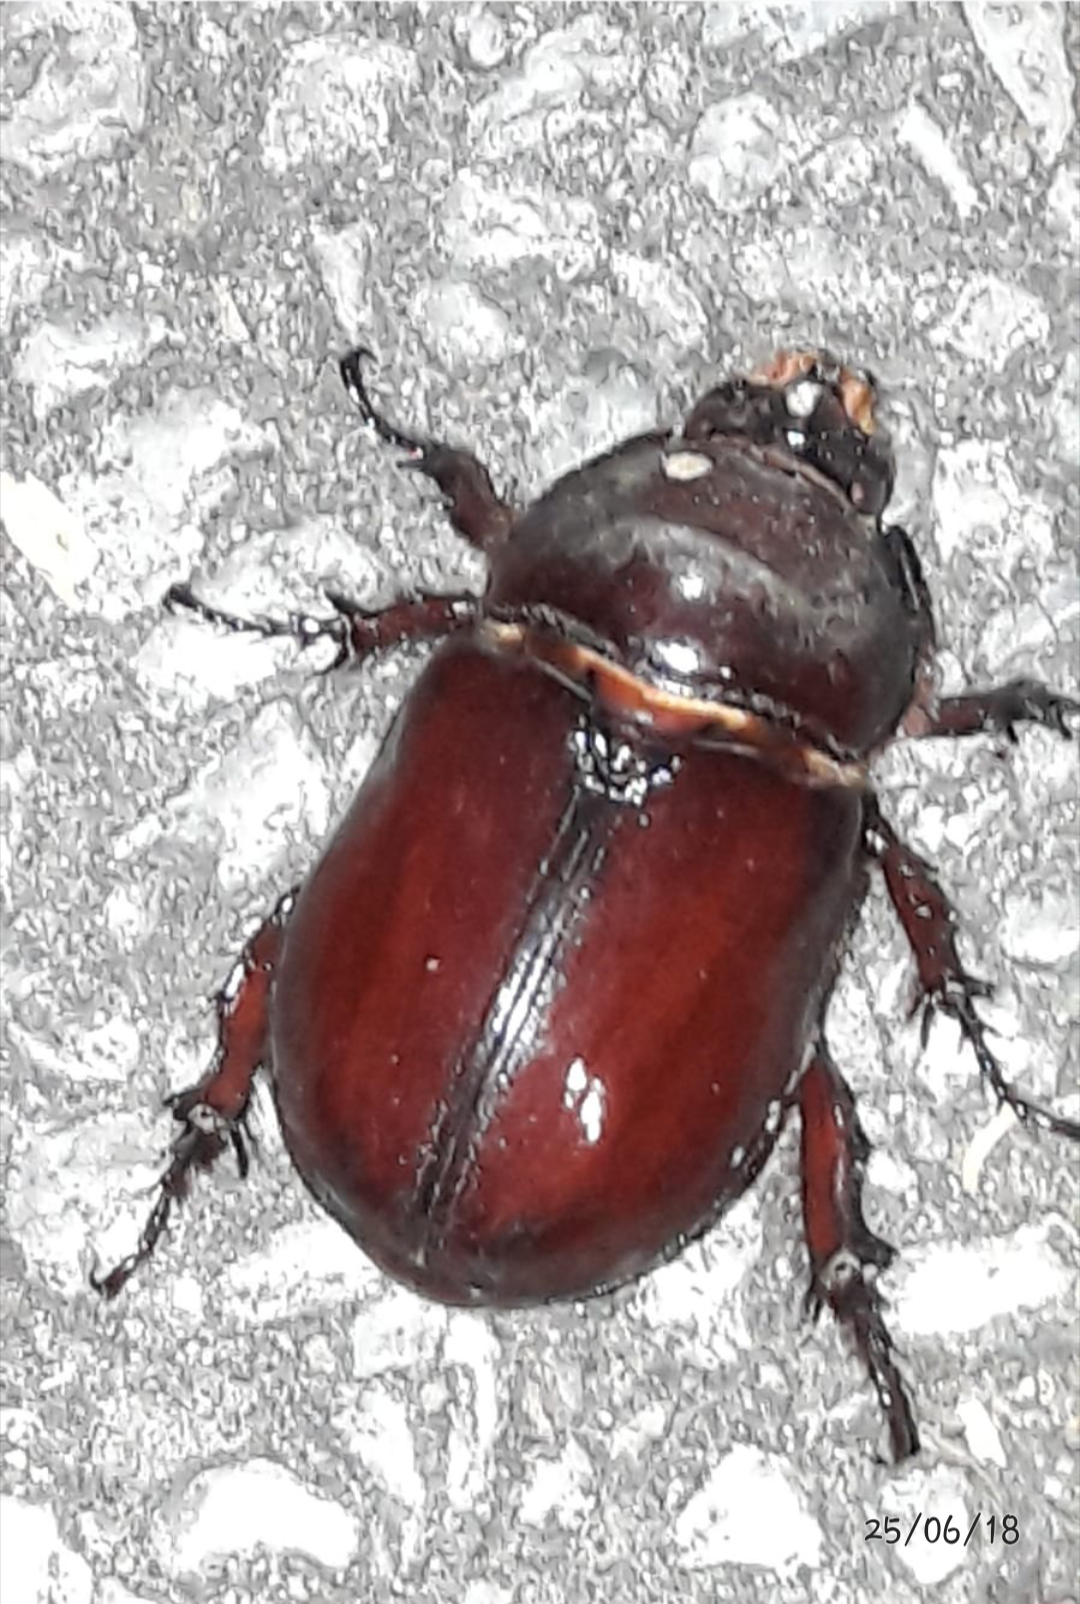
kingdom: Animalia
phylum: Arthropoda
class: Insecta
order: Coleoptera
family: Scarabaeidae
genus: Oryctes
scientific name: Oryctes nasicornis
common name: European rhinoceros beetle
